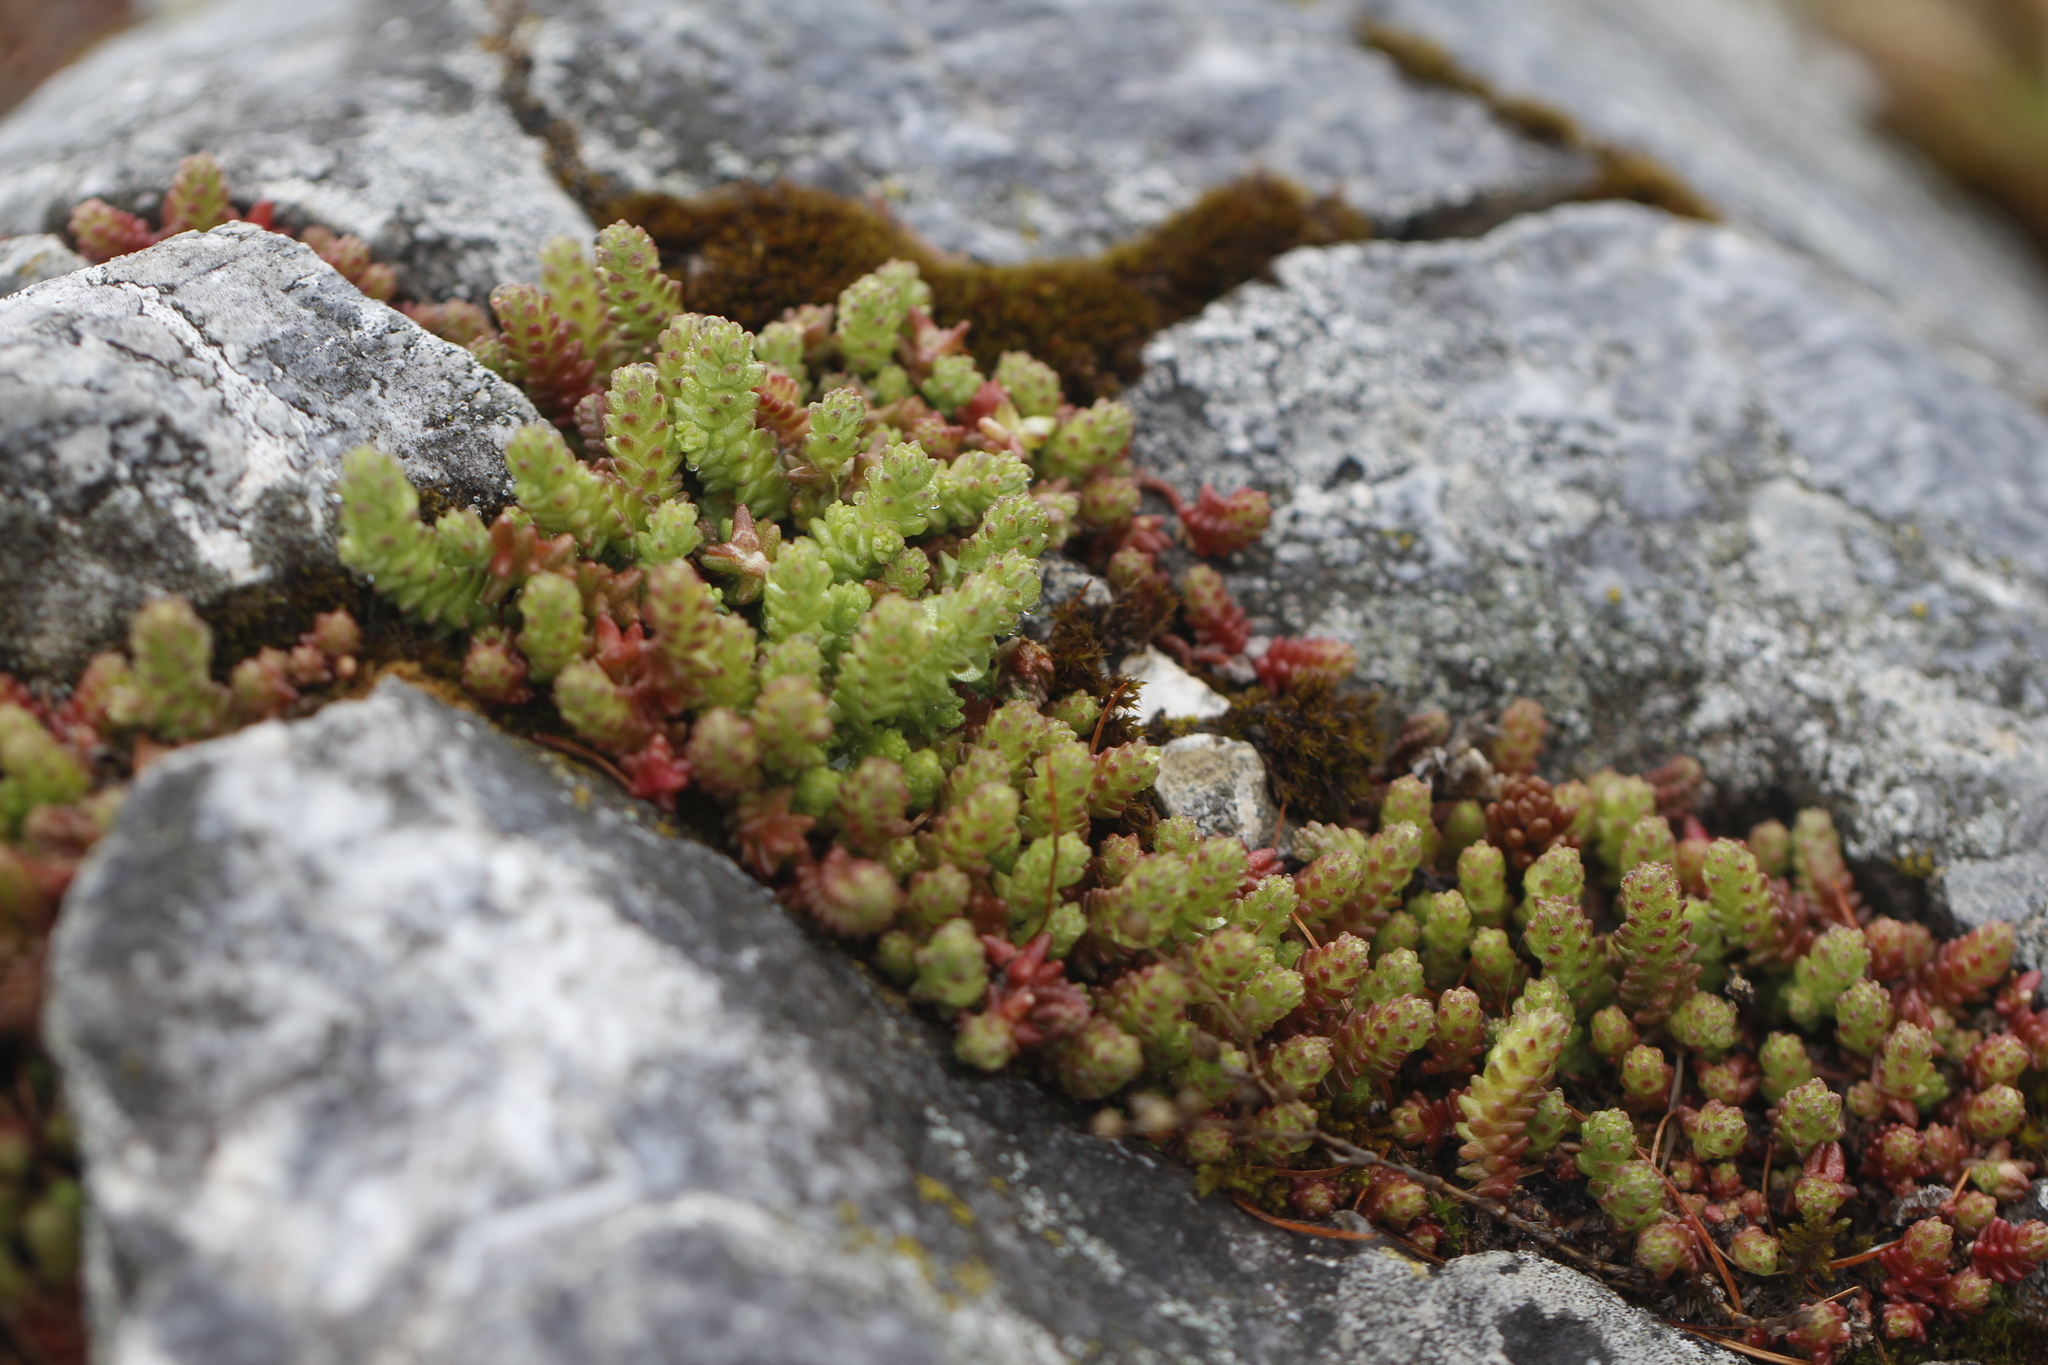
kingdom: Plantae
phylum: Tracheophyta
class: Magnoliopsida
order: Saxifragales
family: Crassulaceae
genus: Sedum
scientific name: Sedum acre
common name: Biting stonecrop
